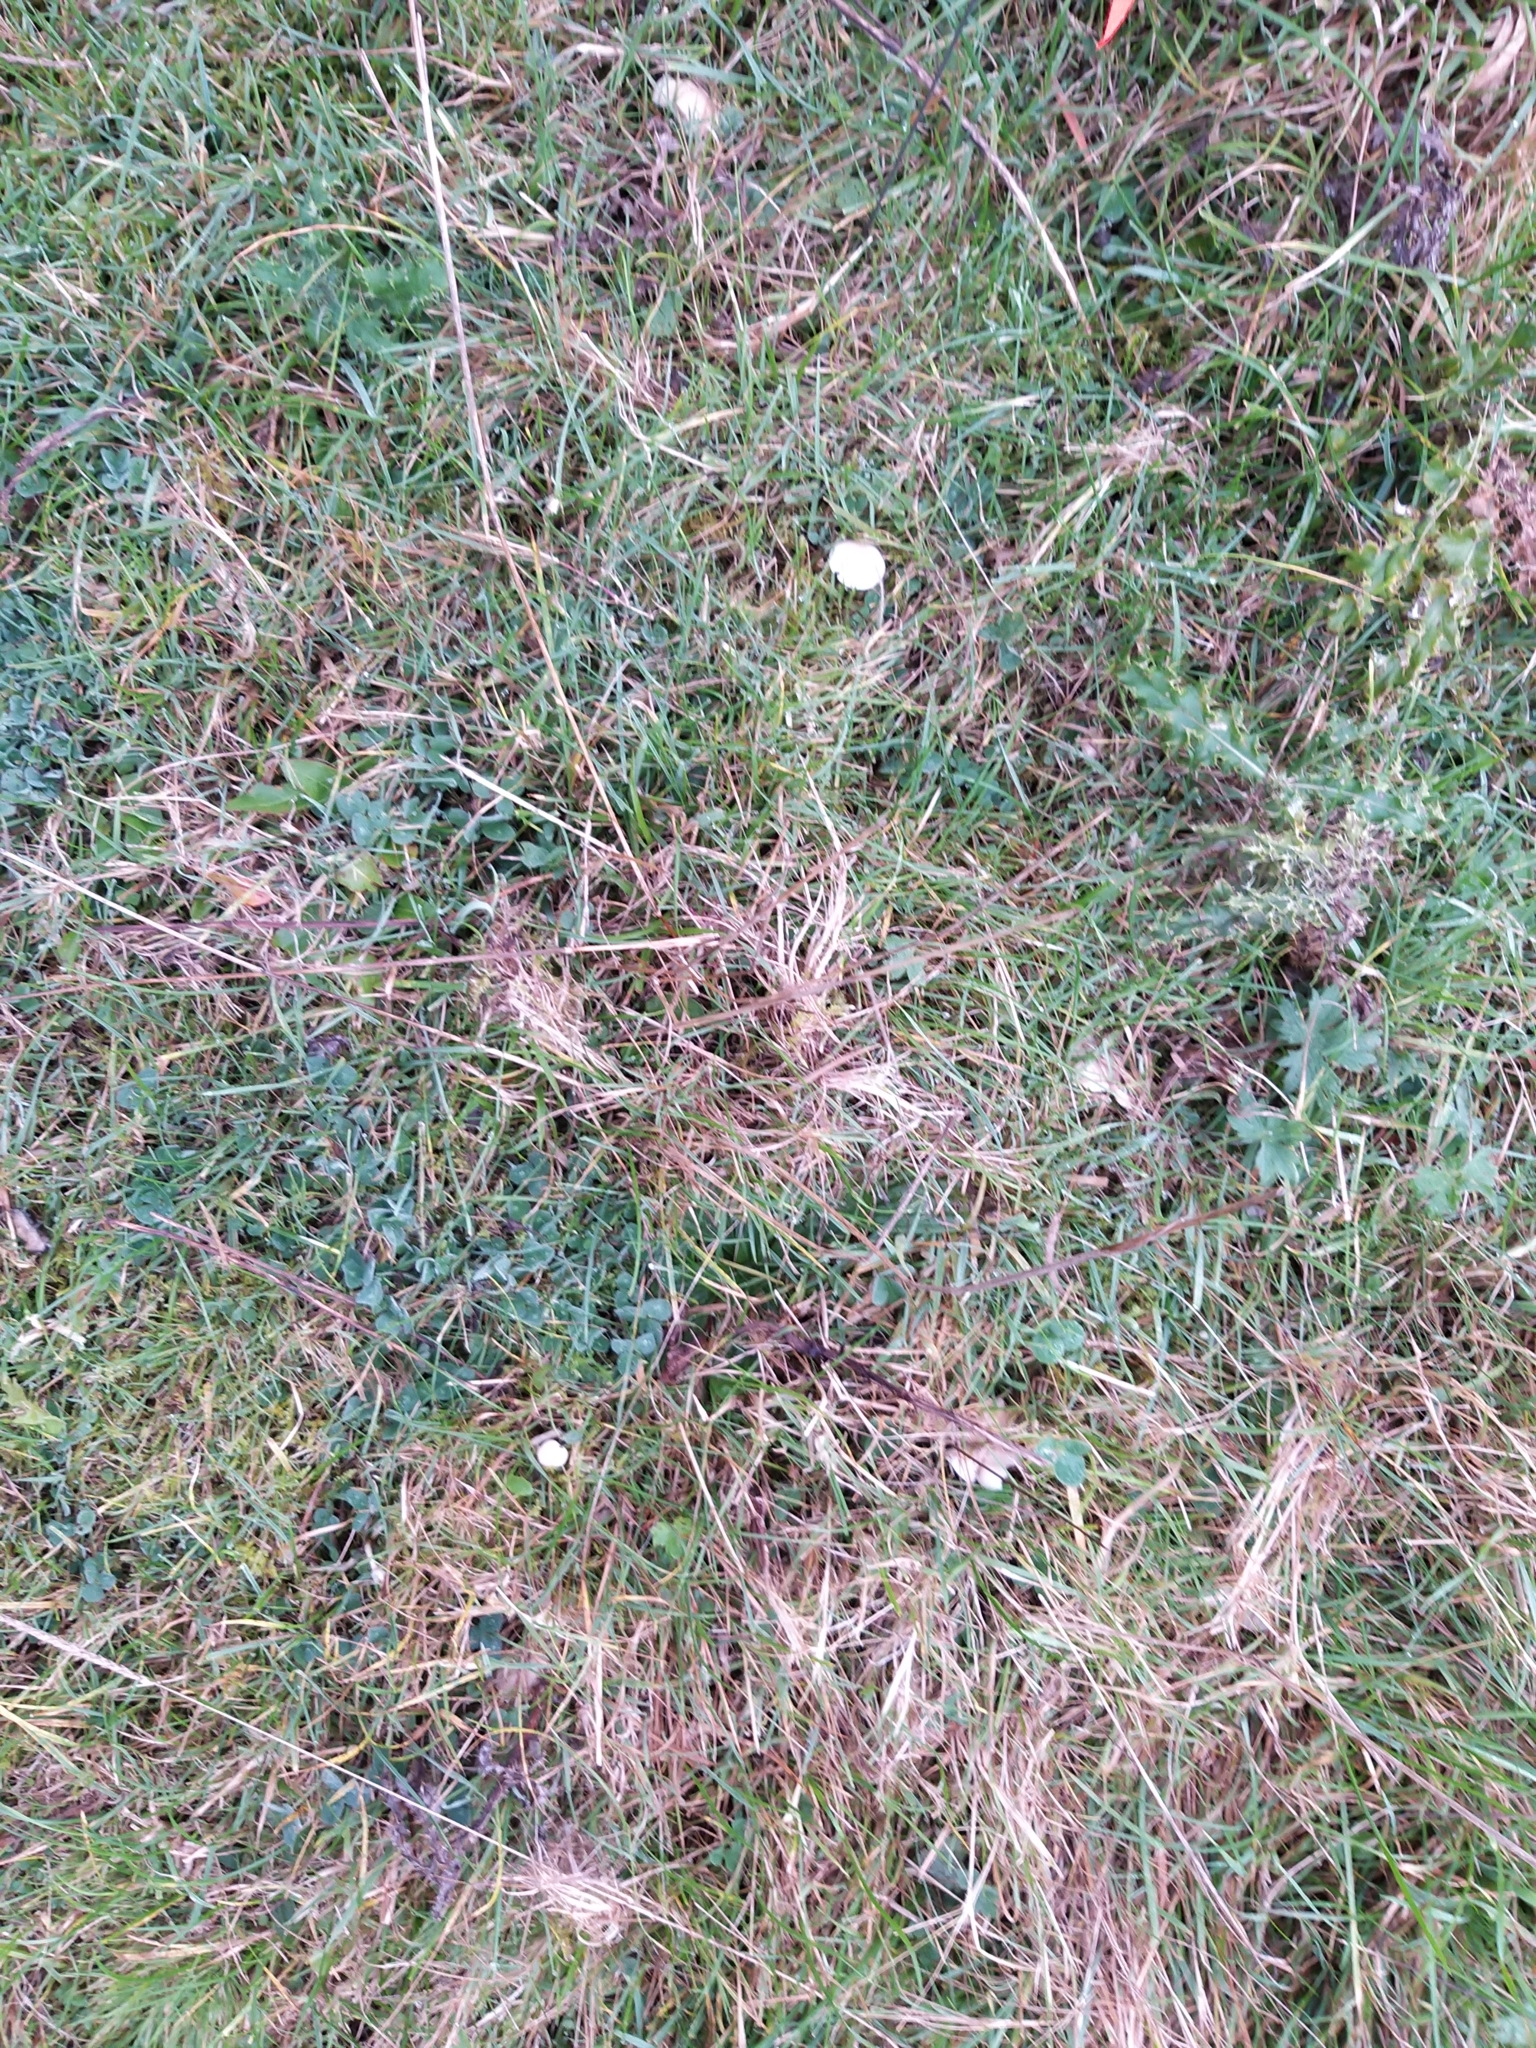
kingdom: Fungi
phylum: Basidiomycota
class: Agaricomycetes
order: Agaricales
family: Hygrophoraceae
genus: Cuphophyllus
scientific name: Cuphophyllus virgineus
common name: Snowy waxcap
